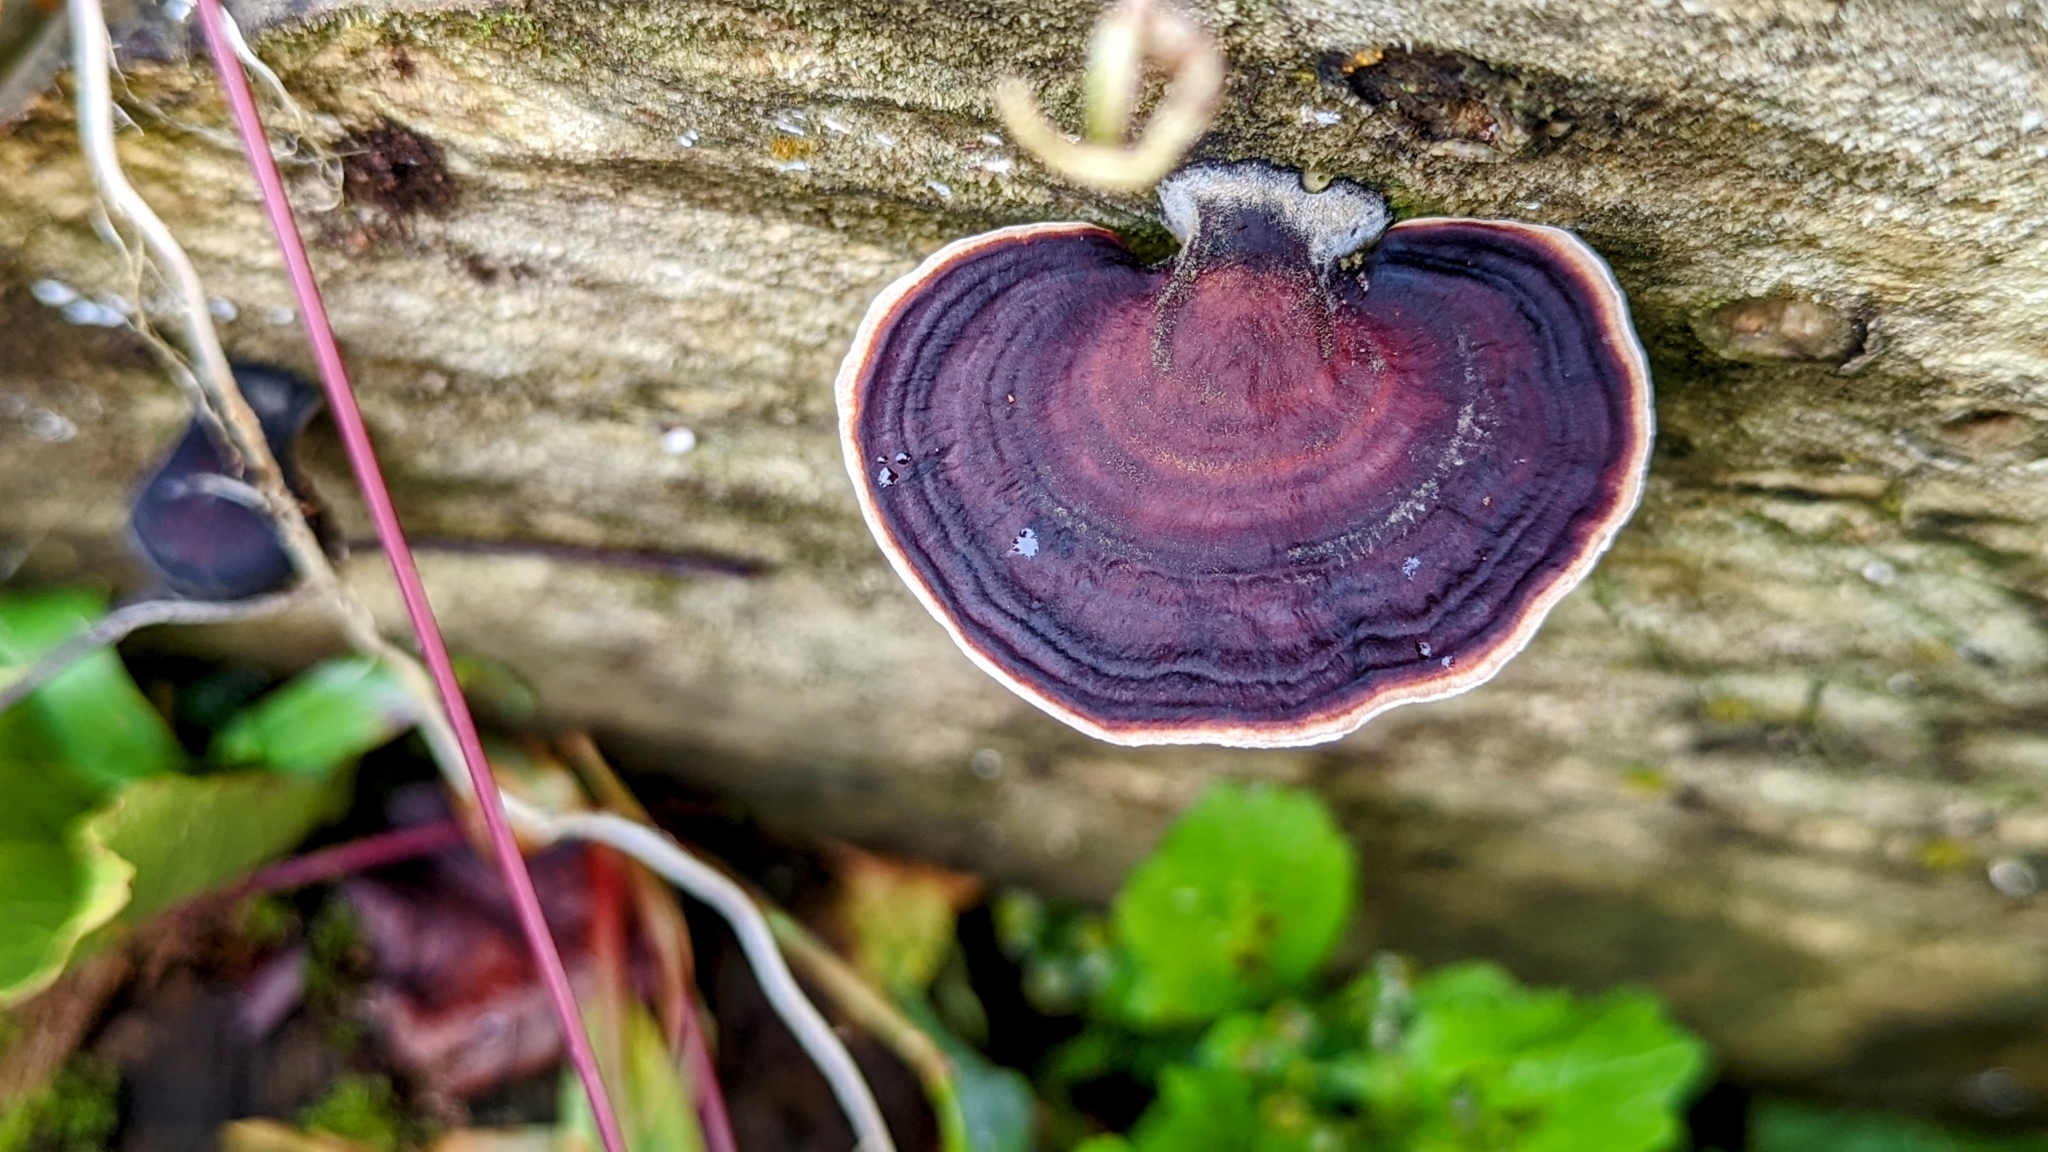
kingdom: Fungi
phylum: Basidiomycota
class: Agaricomycetes
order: Polyporales
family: Polyporaceae
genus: Microporus
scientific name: Microporus affinis
